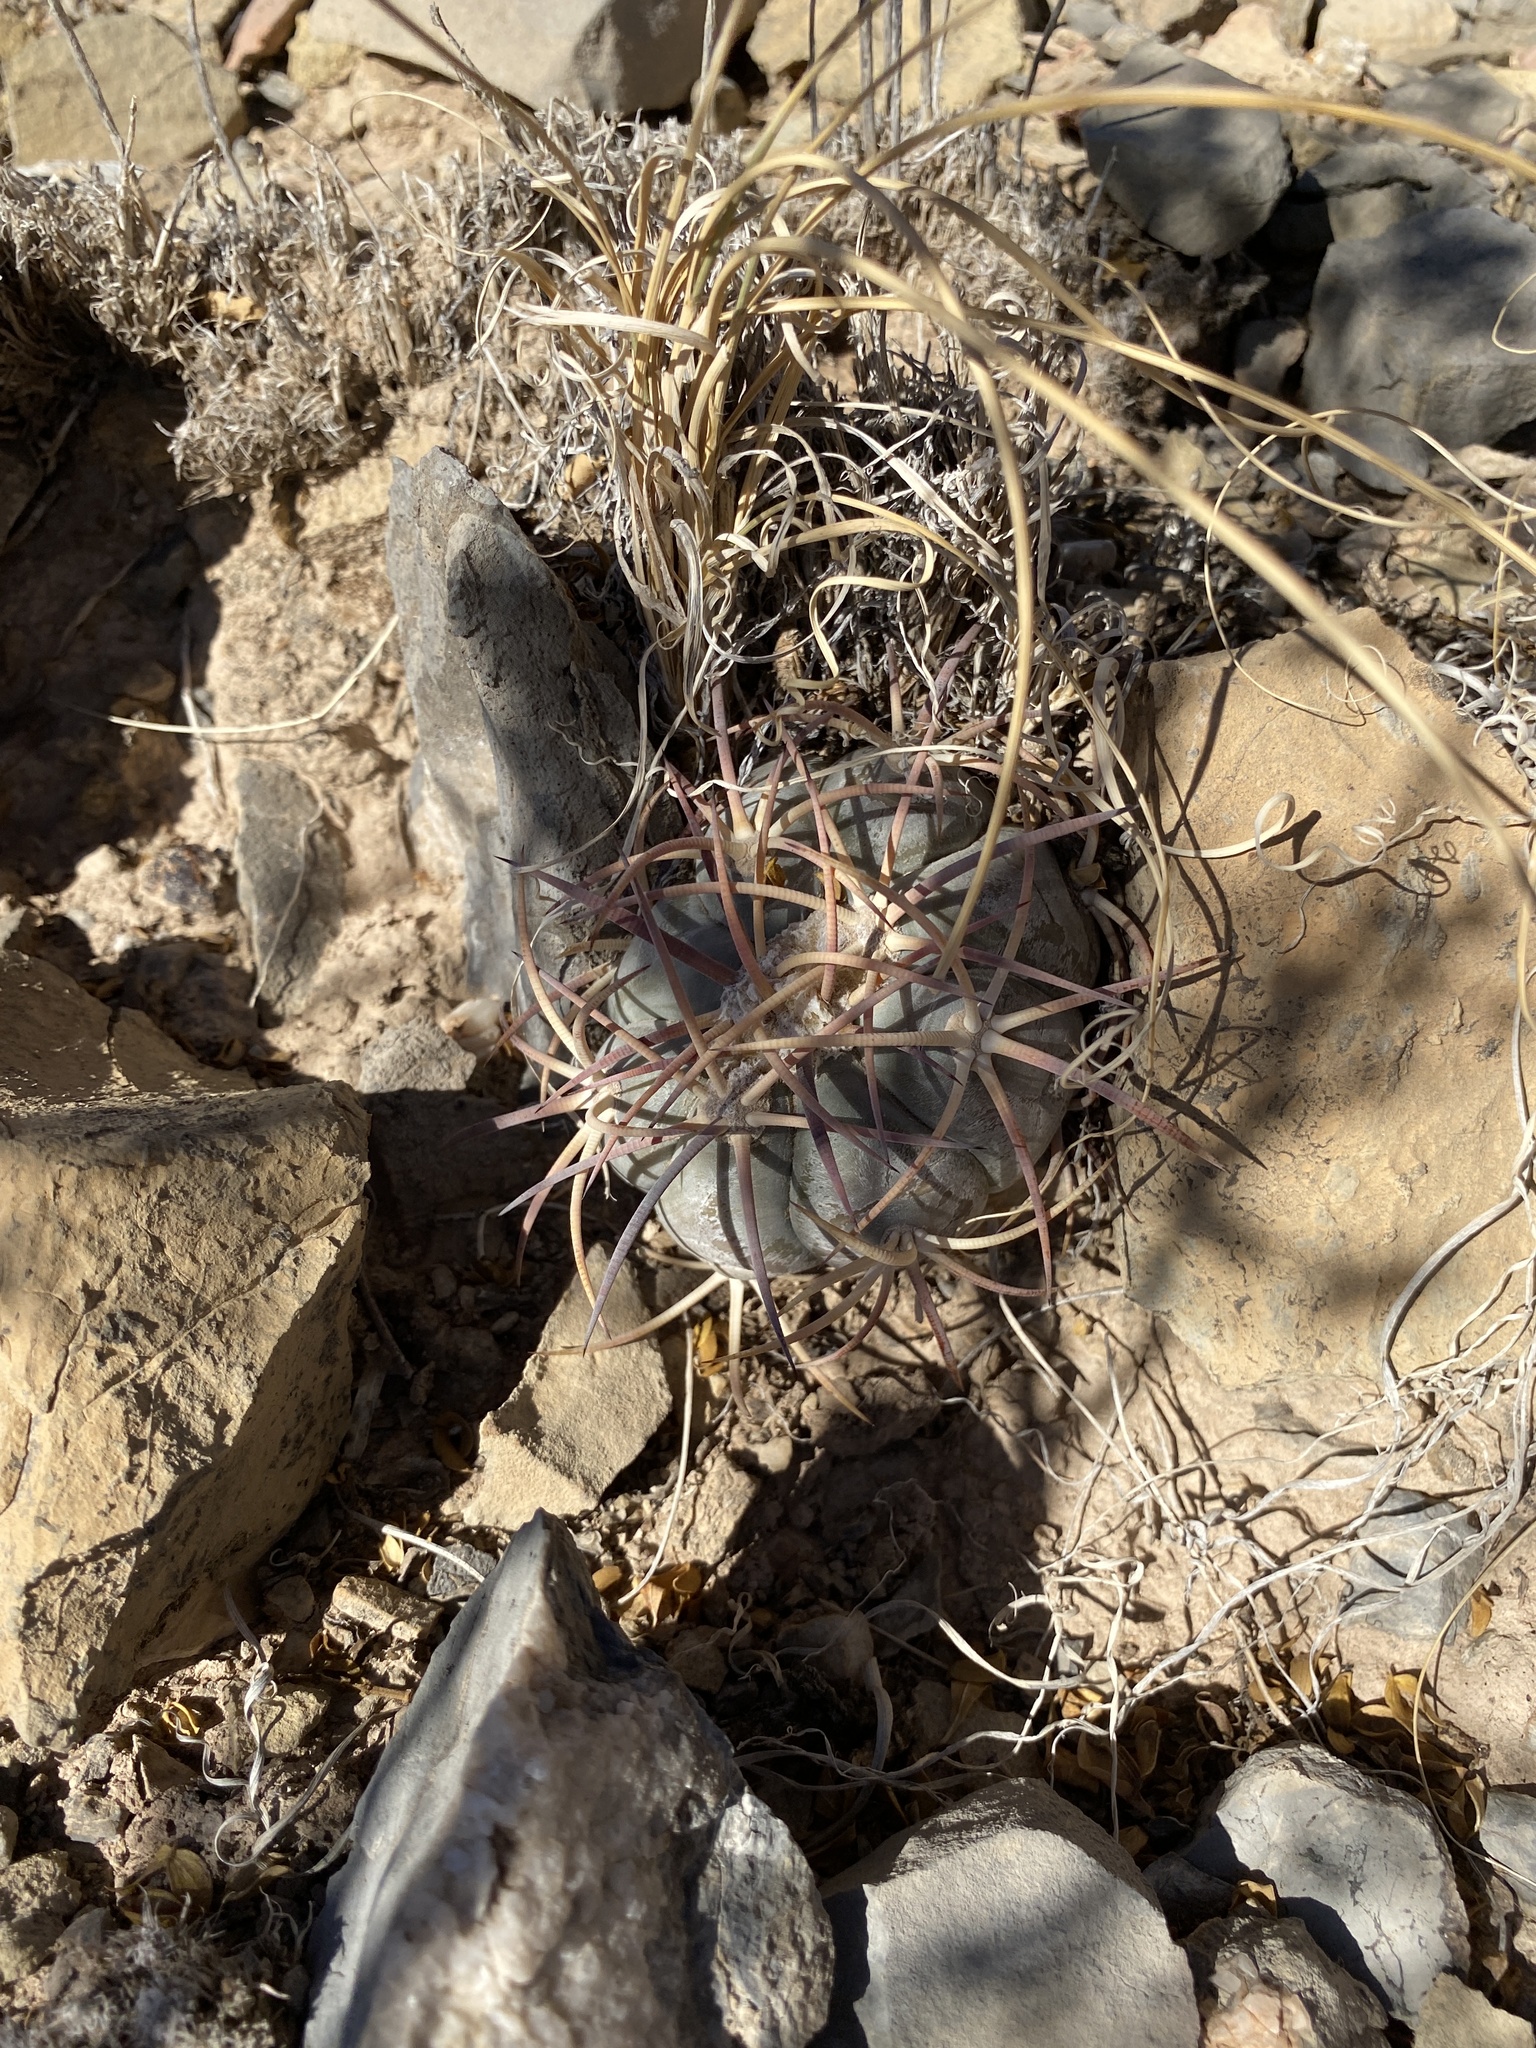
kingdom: Plantae
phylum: Tracheophyta
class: Magnoliopsida
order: Caryophyllales
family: Cactaceae
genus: Echinocactus
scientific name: Echinocactus horizonthalonius
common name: Devilshead
